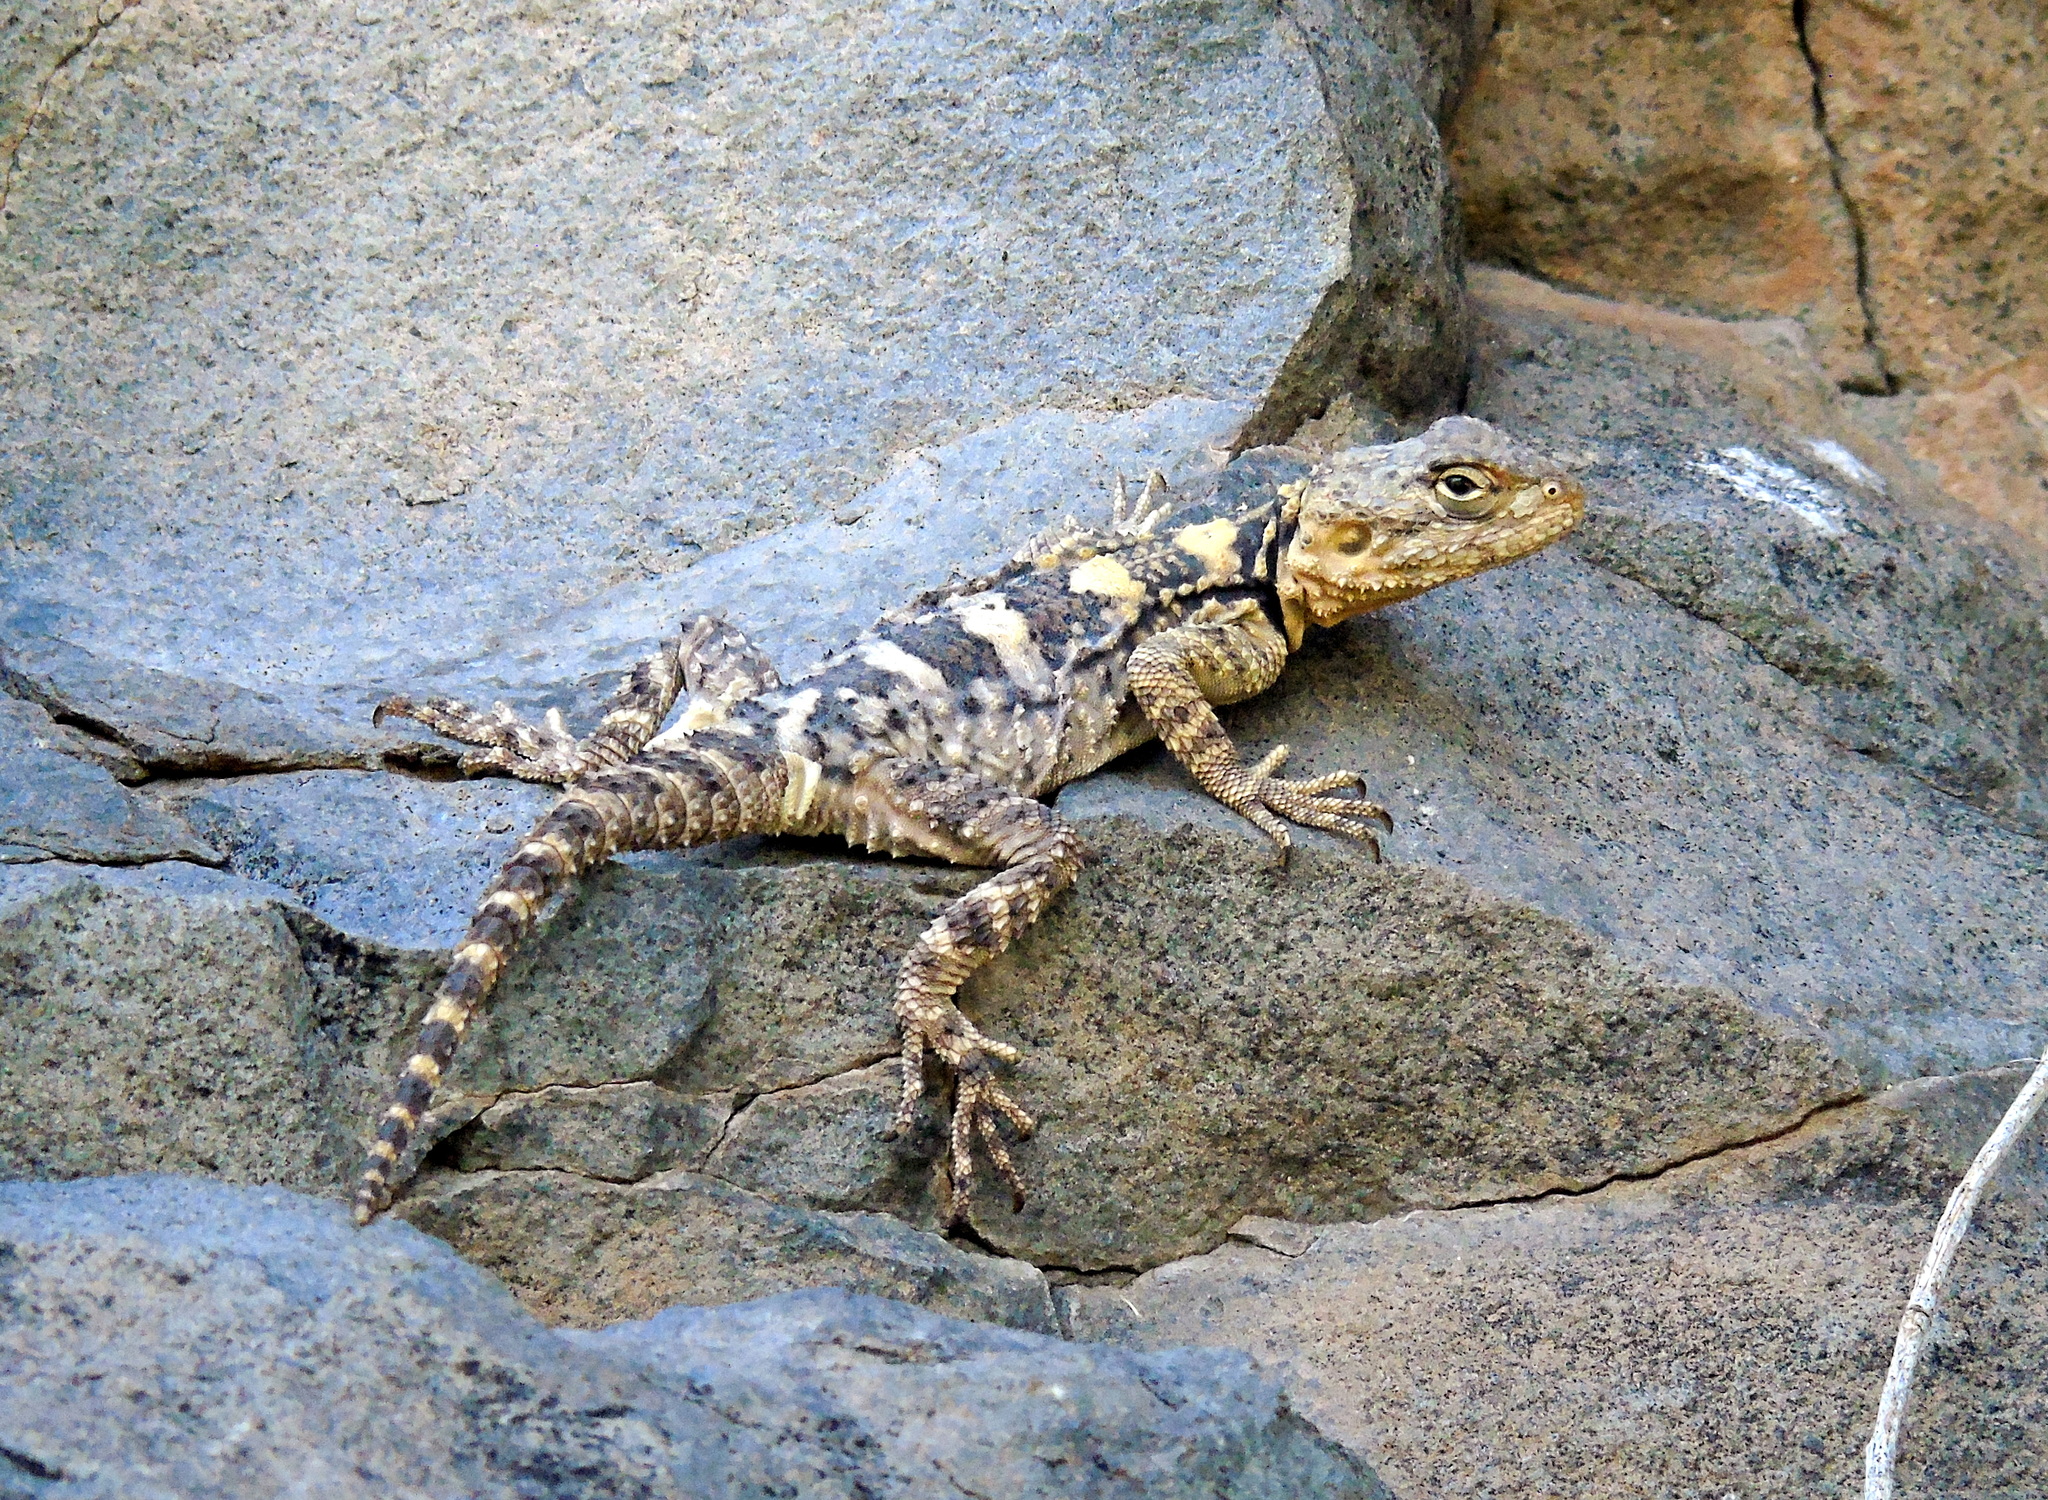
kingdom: Animalia
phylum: Chordata
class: Squamata
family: Agamidae
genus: Stellagama
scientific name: Stellagama stellio
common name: Starred agama
